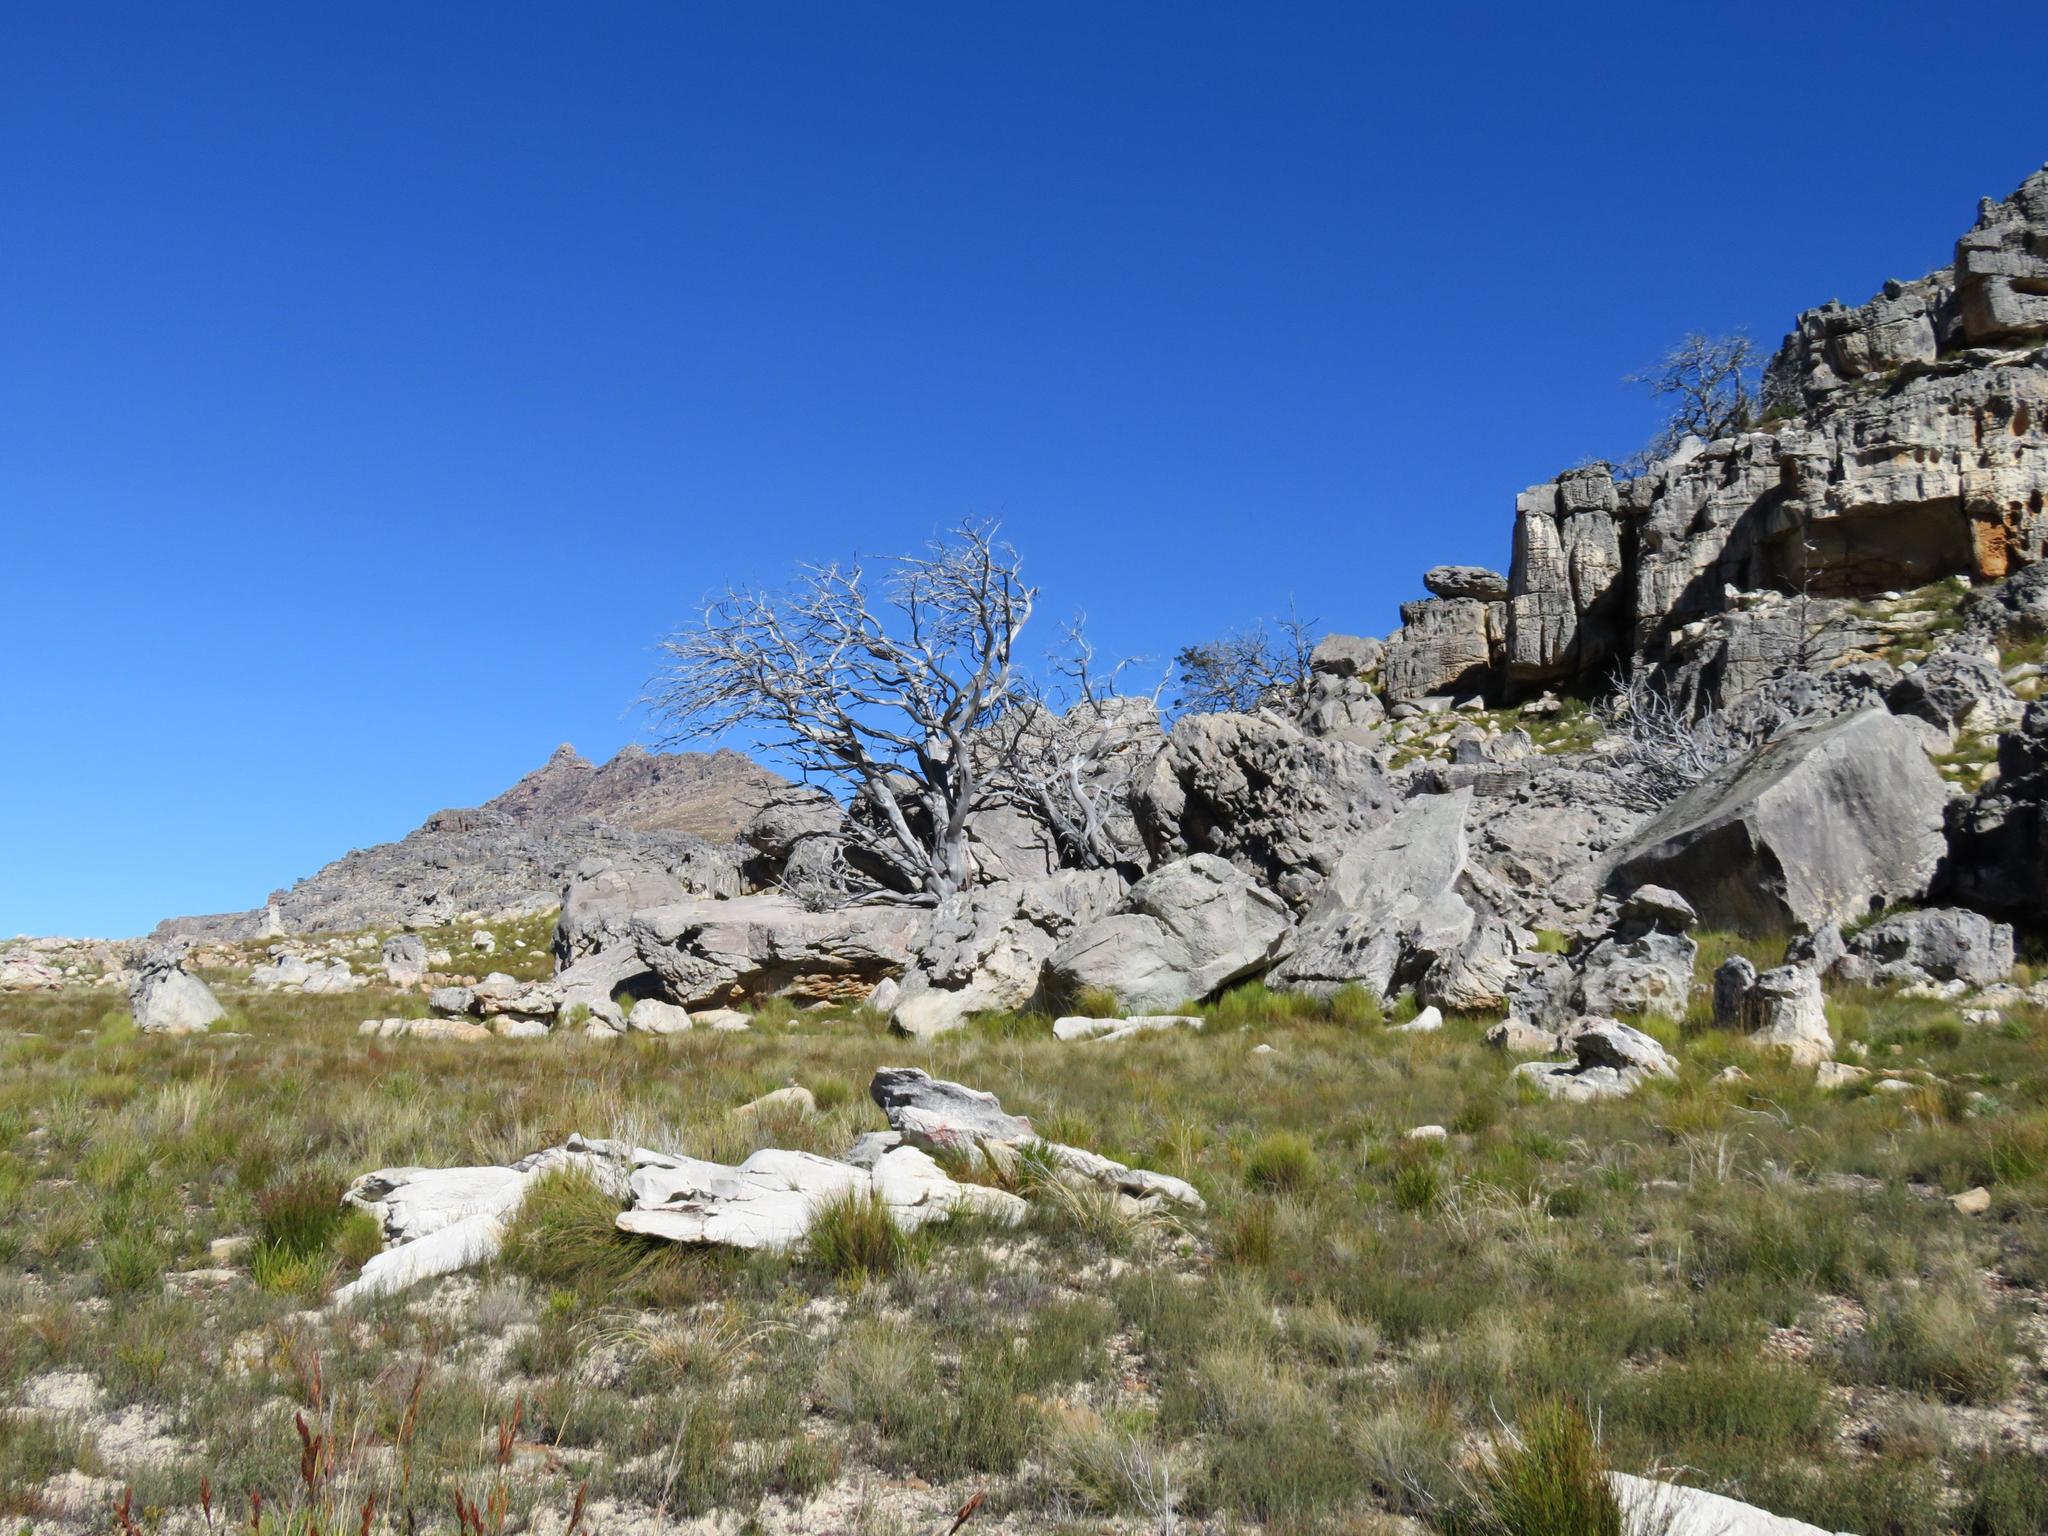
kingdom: Plantae
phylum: Tracheophyta
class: Pinopsida
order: Pinales
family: Cupressaceae
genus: Widdringtonia
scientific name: Widdringtonia nodiflora
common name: Cape cypress
